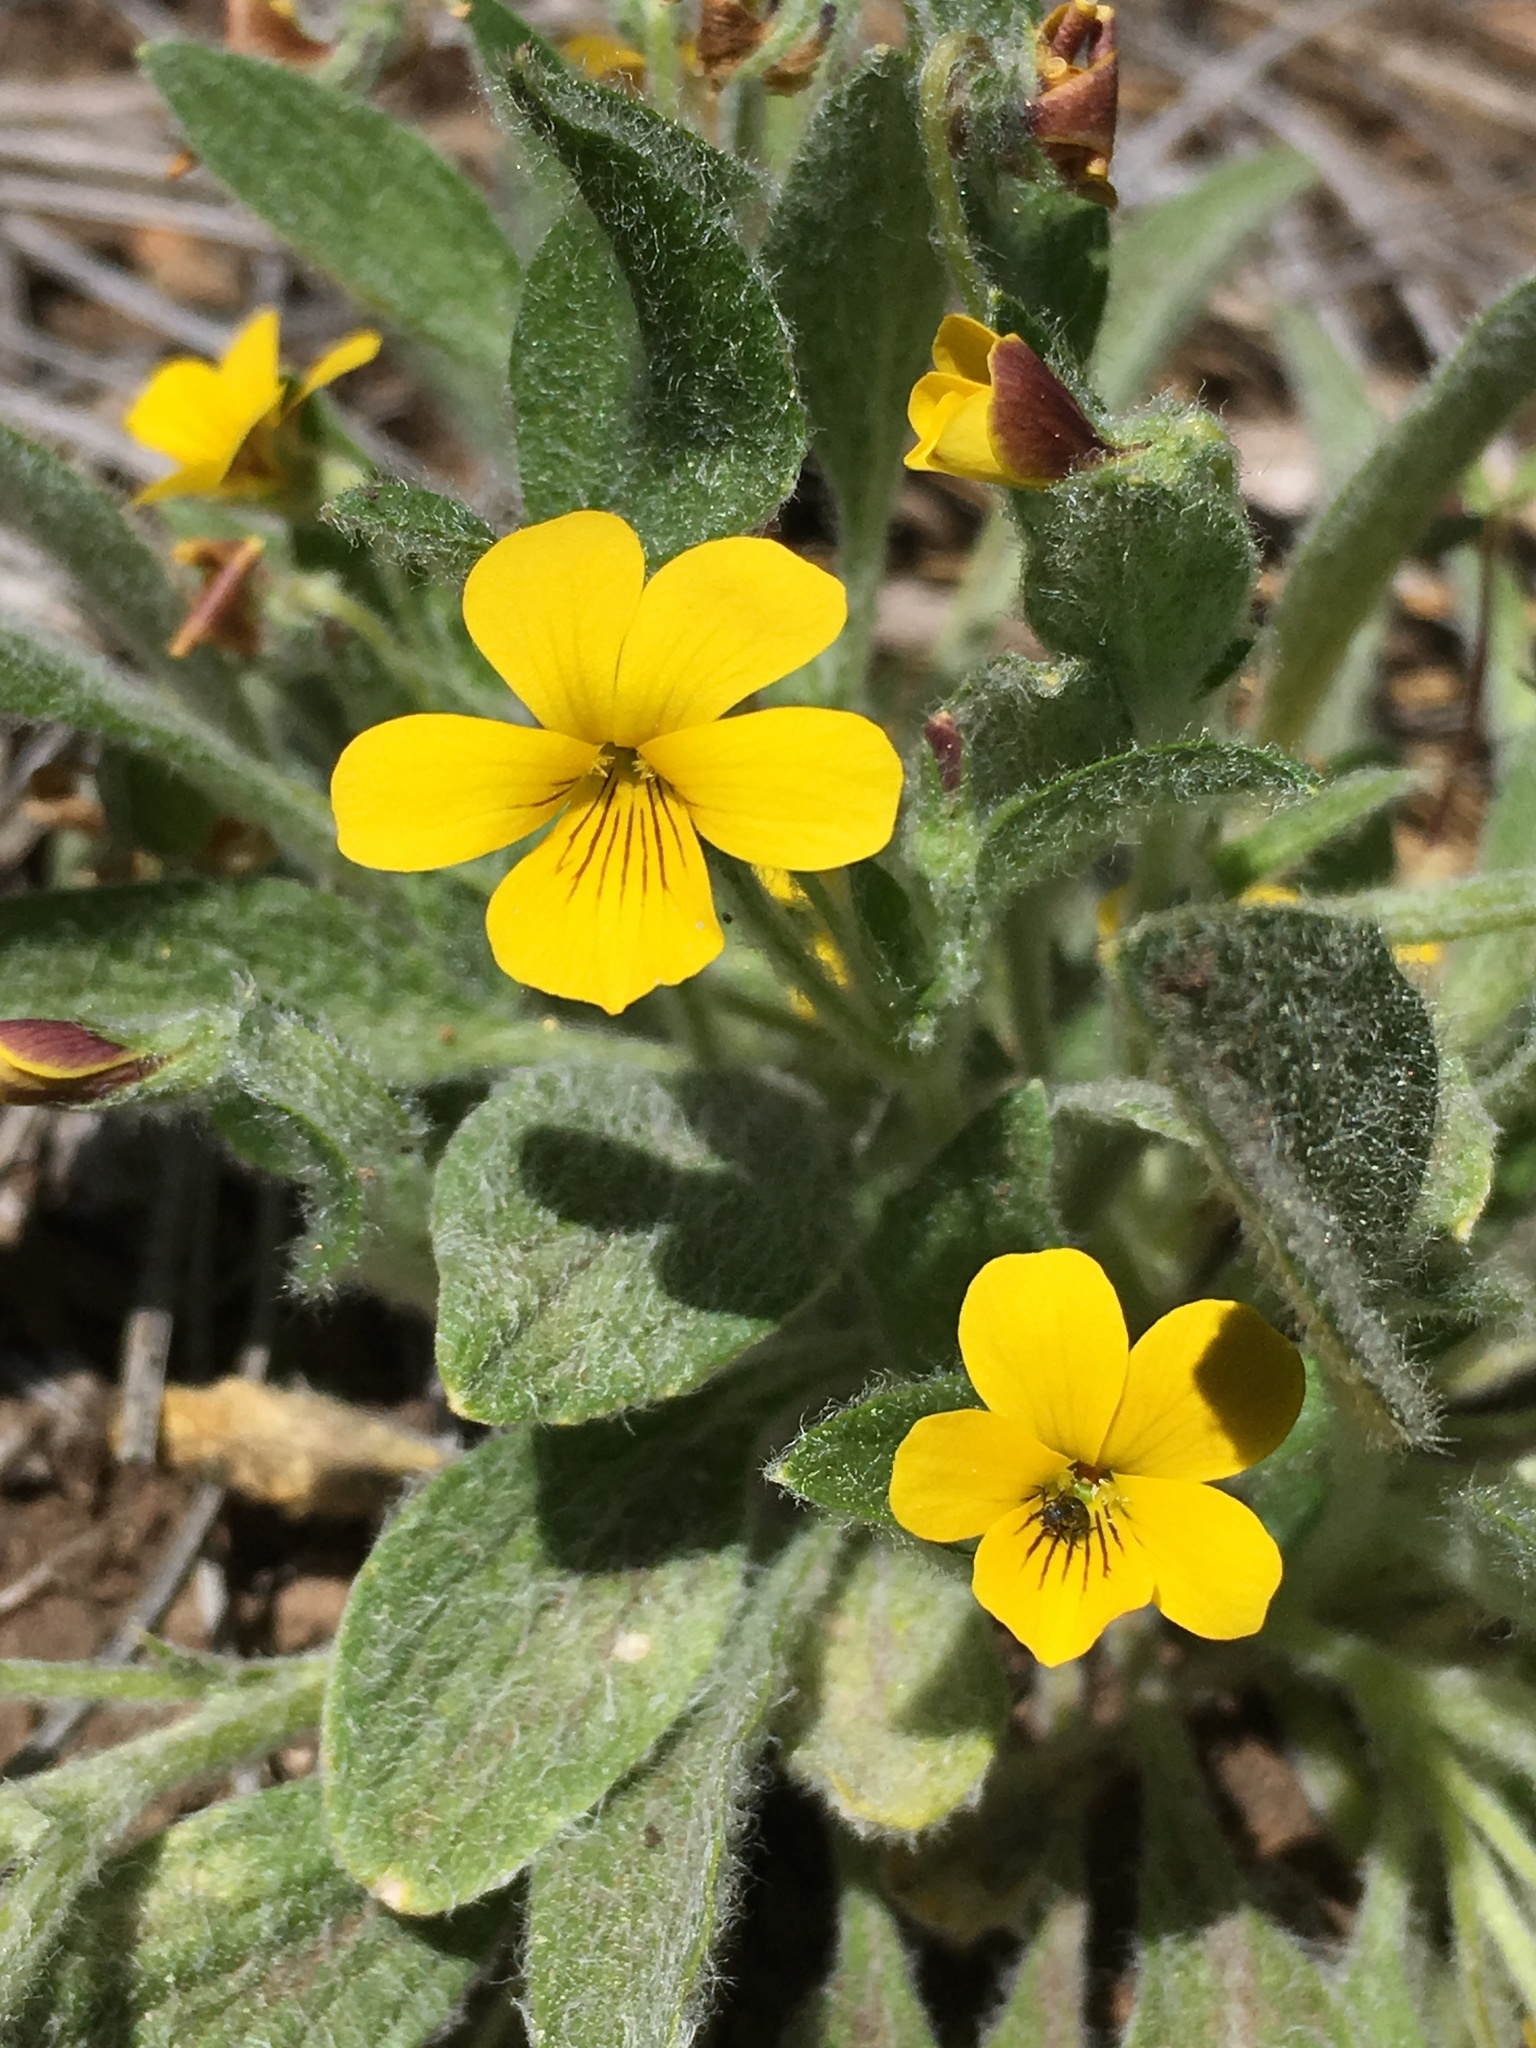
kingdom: Plantae
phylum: Tracheophyta
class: Magnoliopsida
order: Malpighiales
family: Violaceae
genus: Viola
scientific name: Viola tomentosa
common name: Woolly violet
